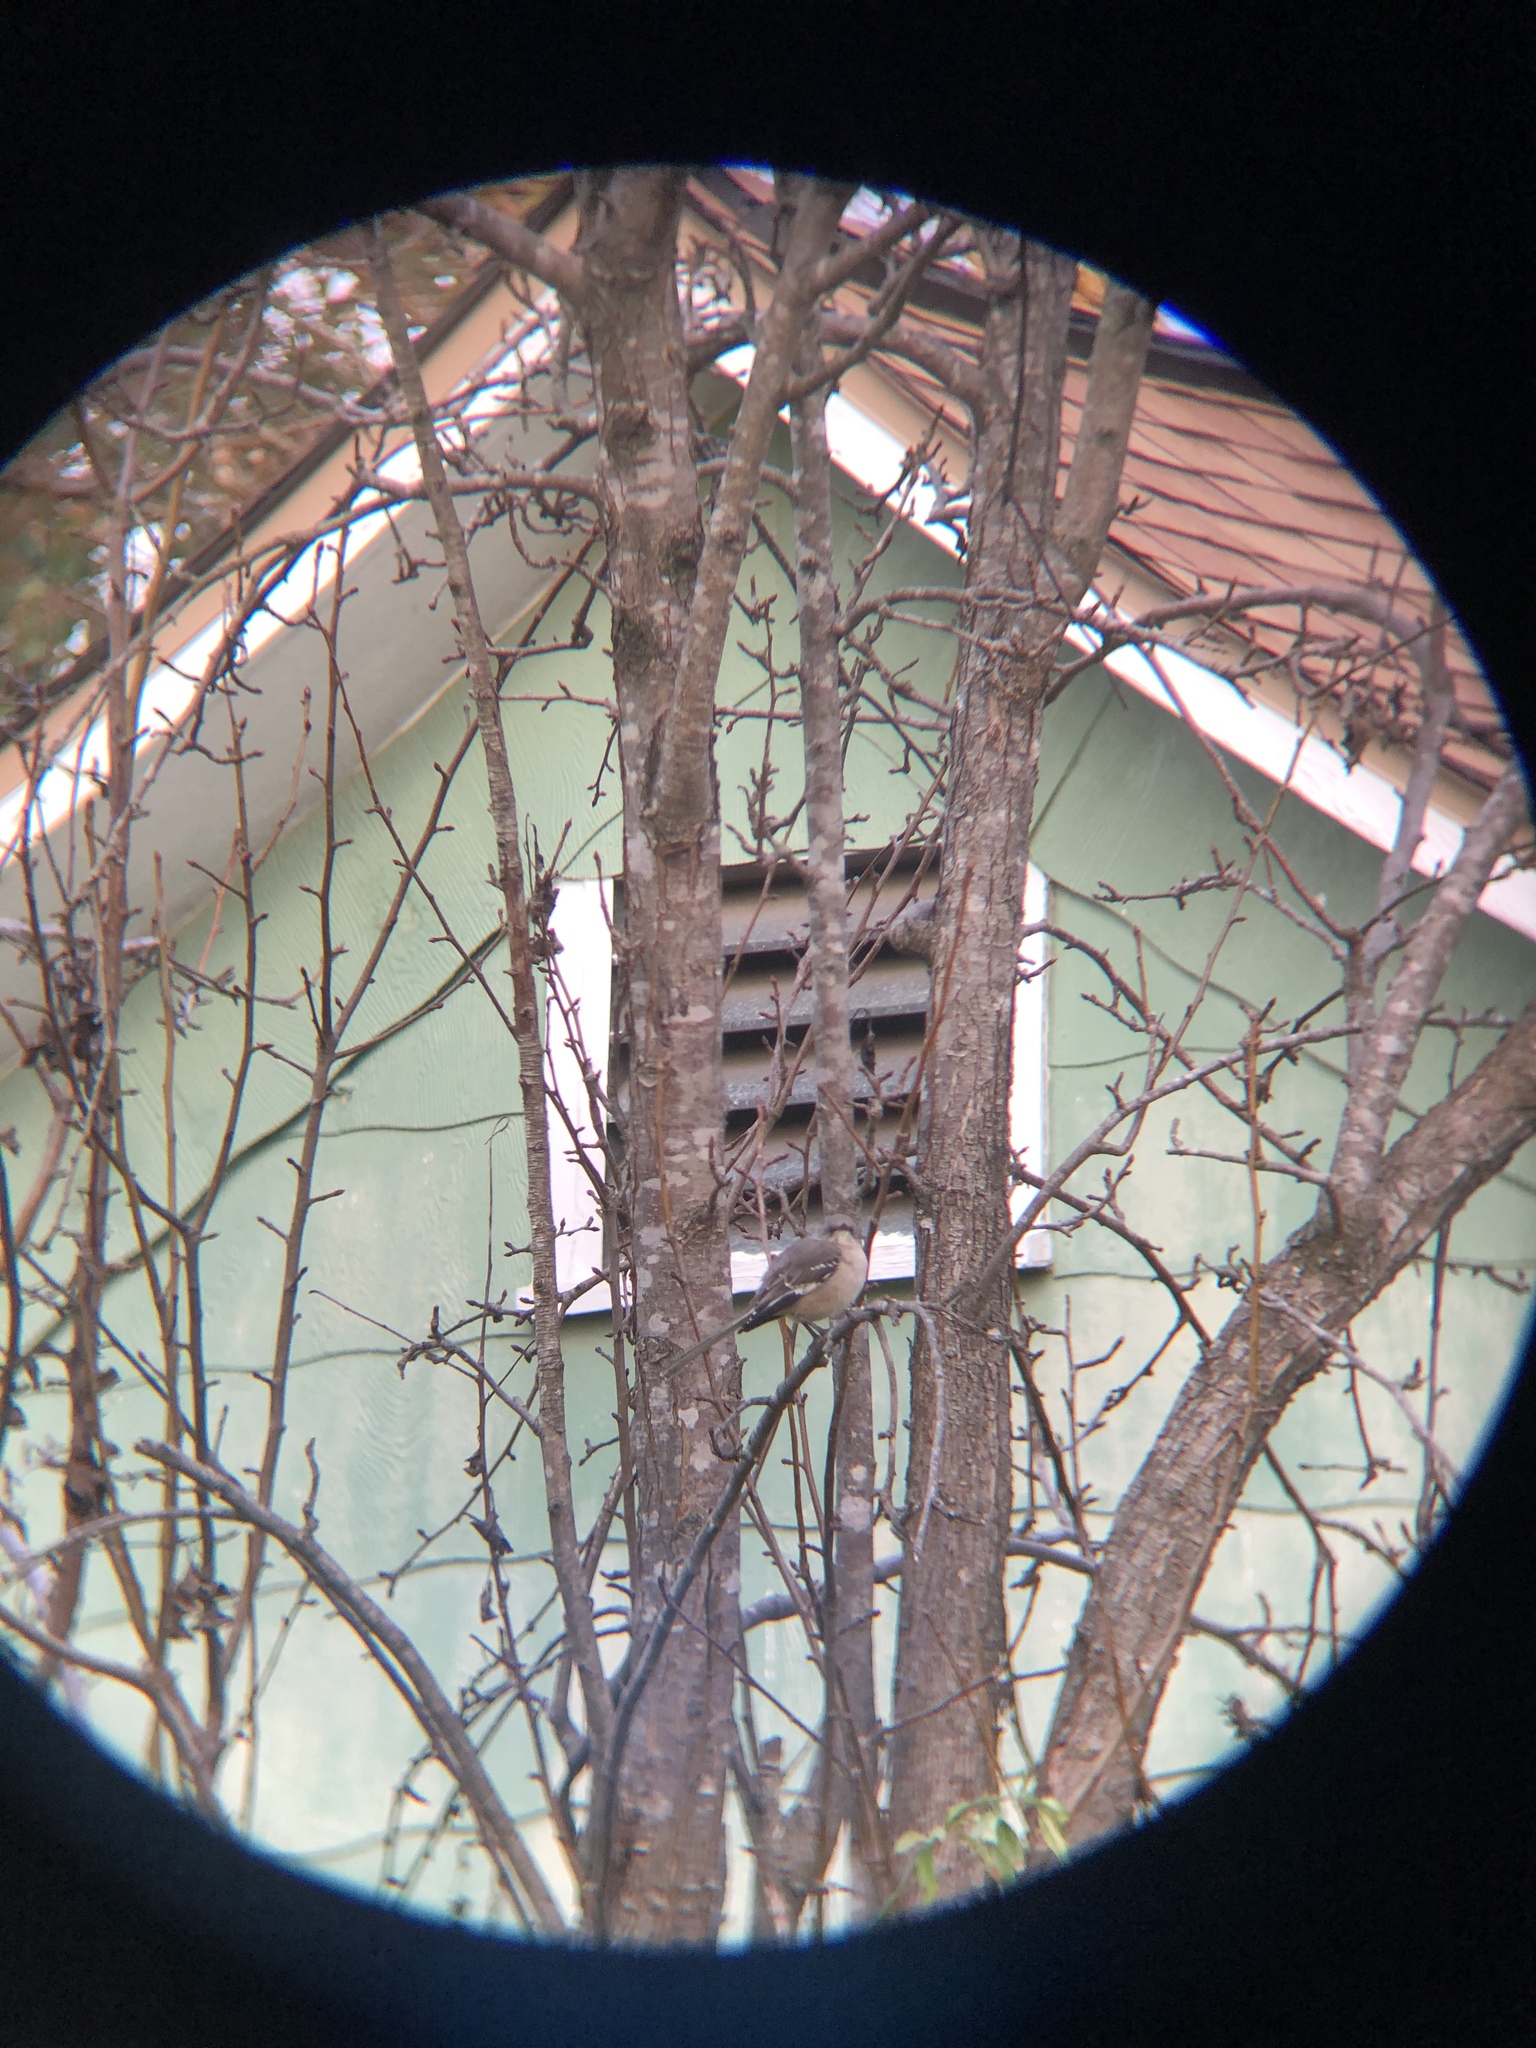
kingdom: Animalia
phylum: Chordata
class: Aves
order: Passeriformes
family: Mimidae
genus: Mimus
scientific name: Mimus polyglottos
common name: Northern mockingbird
